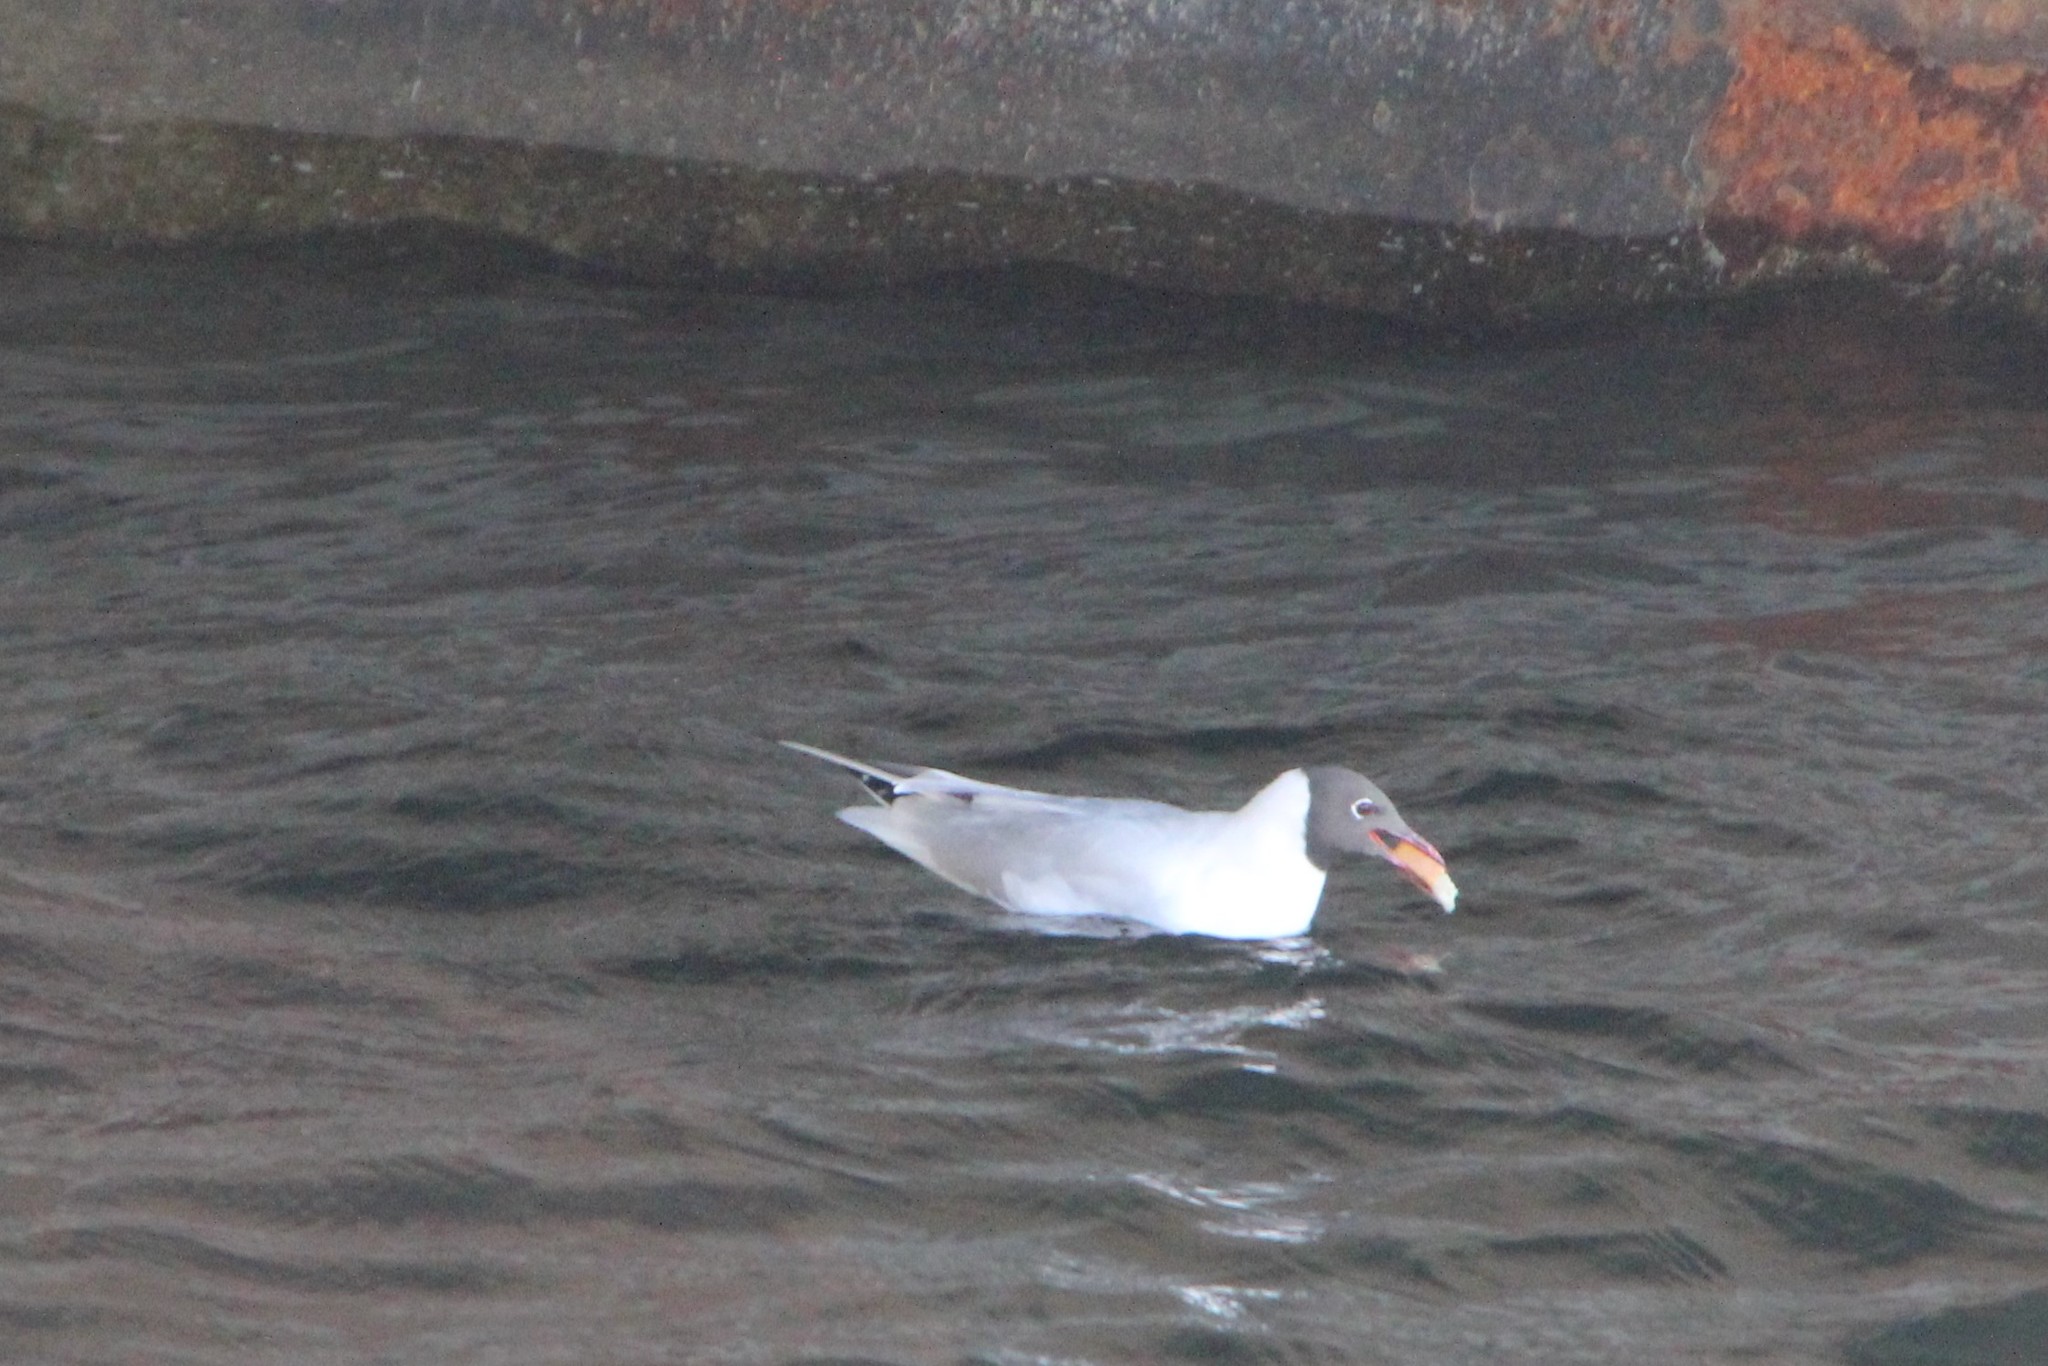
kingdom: Animalia
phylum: Chordata
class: Aves
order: Charadriiformes
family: Laridae
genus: Chroicocephalus
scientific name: Chroicocephalus ridibundus
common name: Black-headed gull
